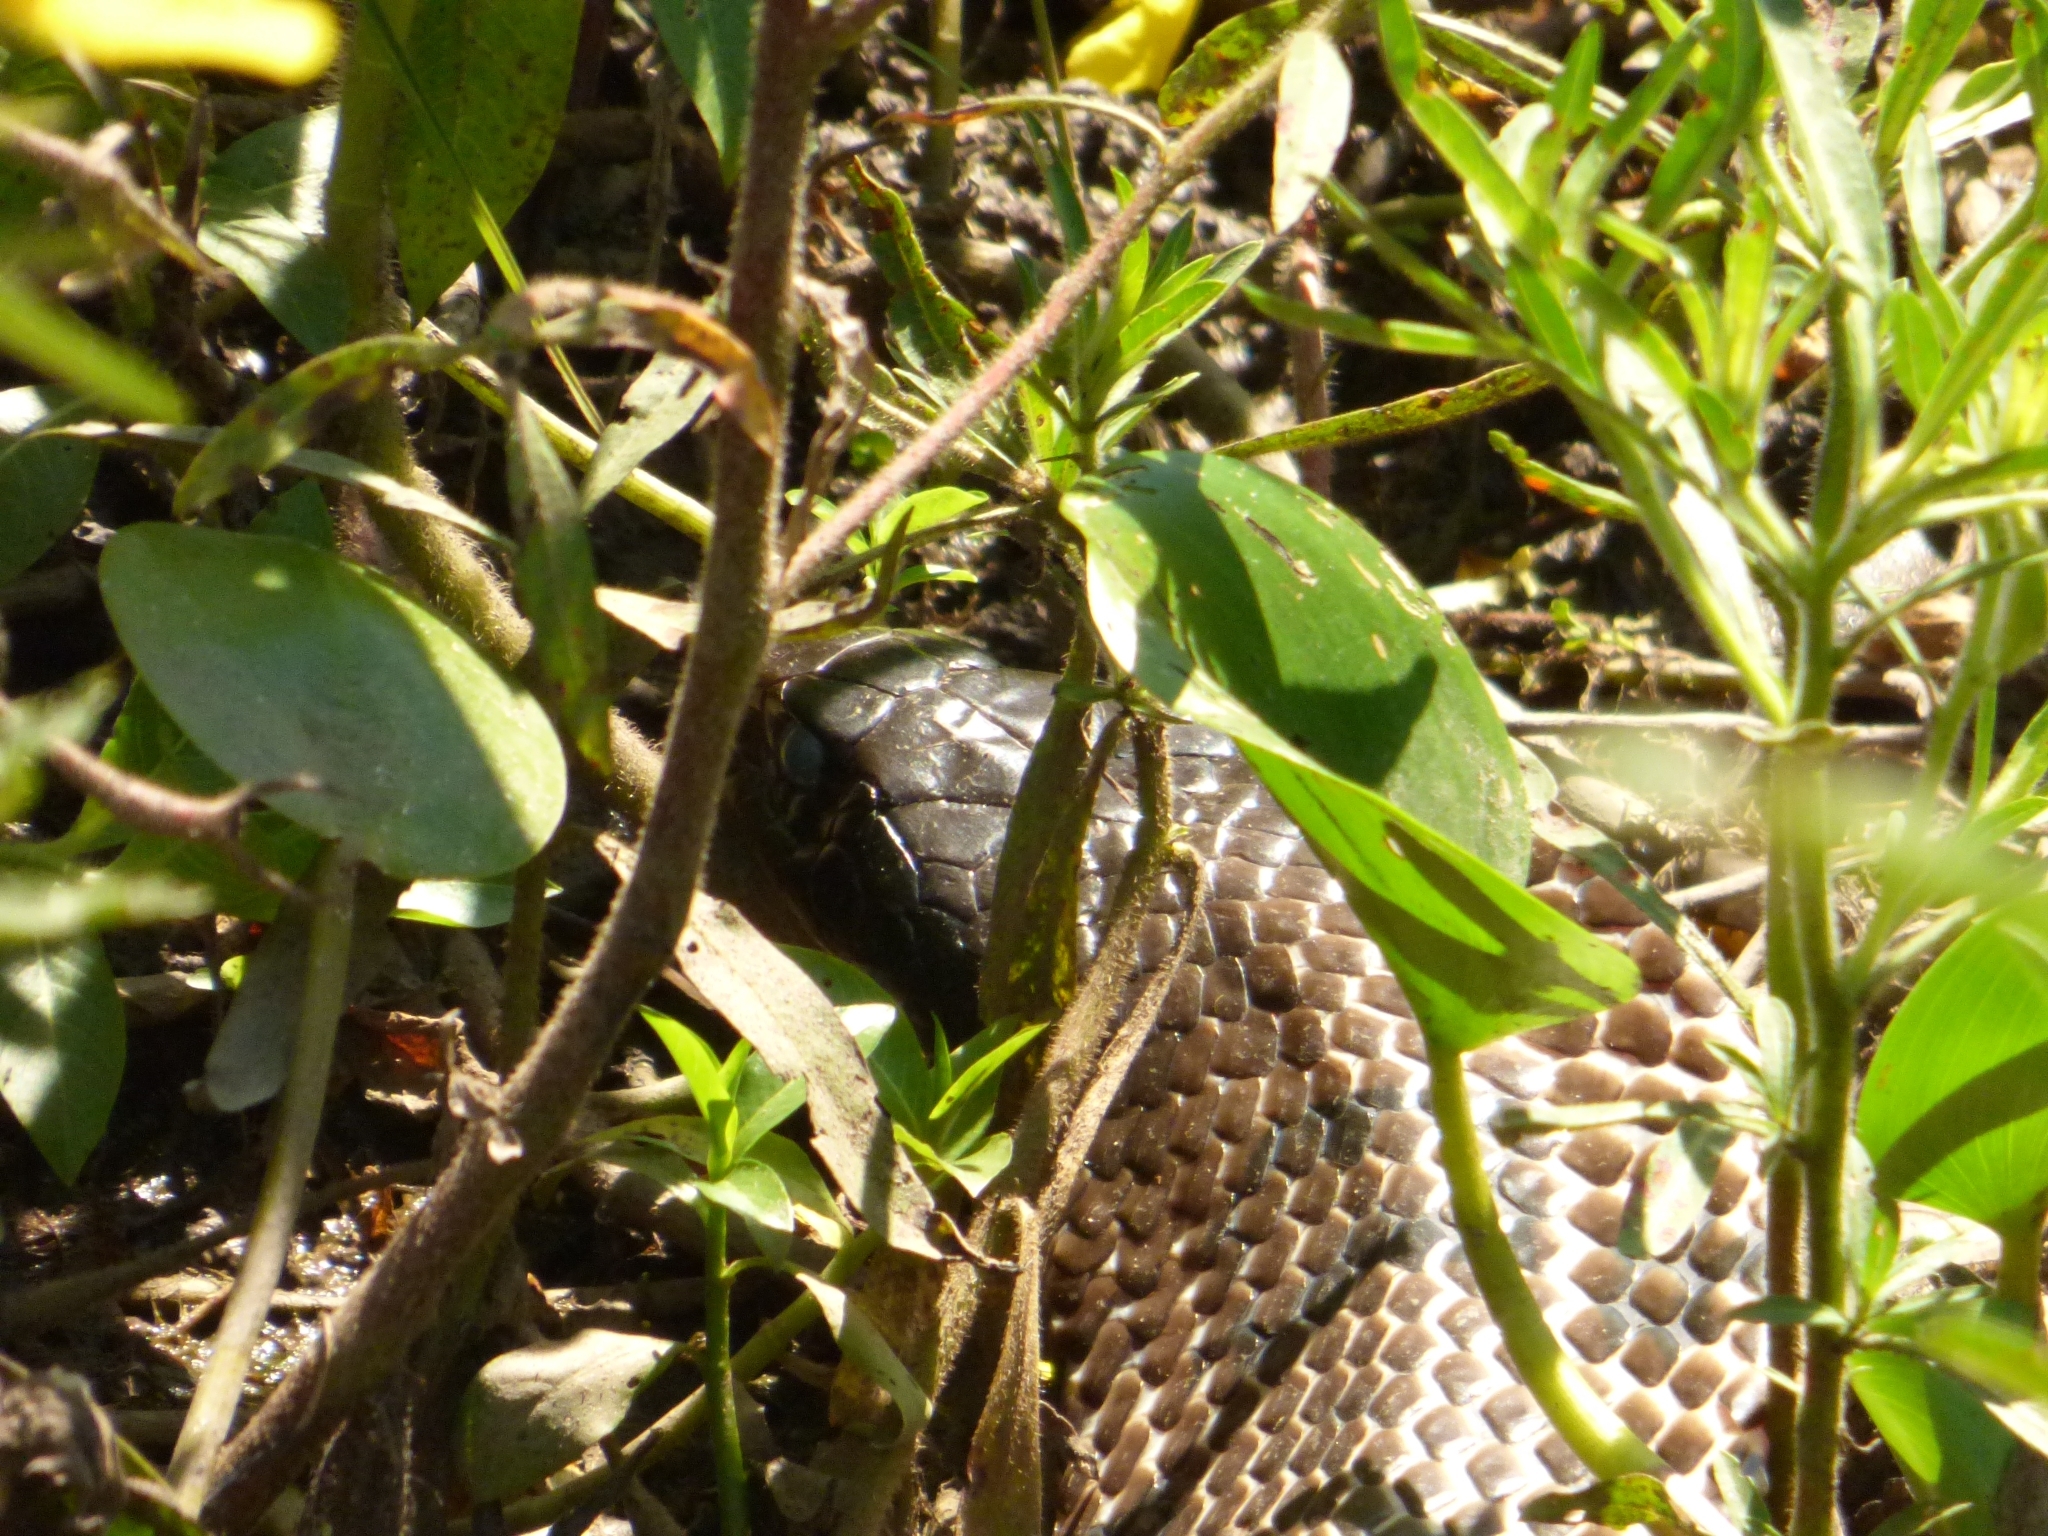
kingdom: Animalia
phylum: Chordata
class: Squamata
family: Colubridae
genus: Hydrodynastes
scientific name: Hydrodynastes gigas
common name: False water cobra
